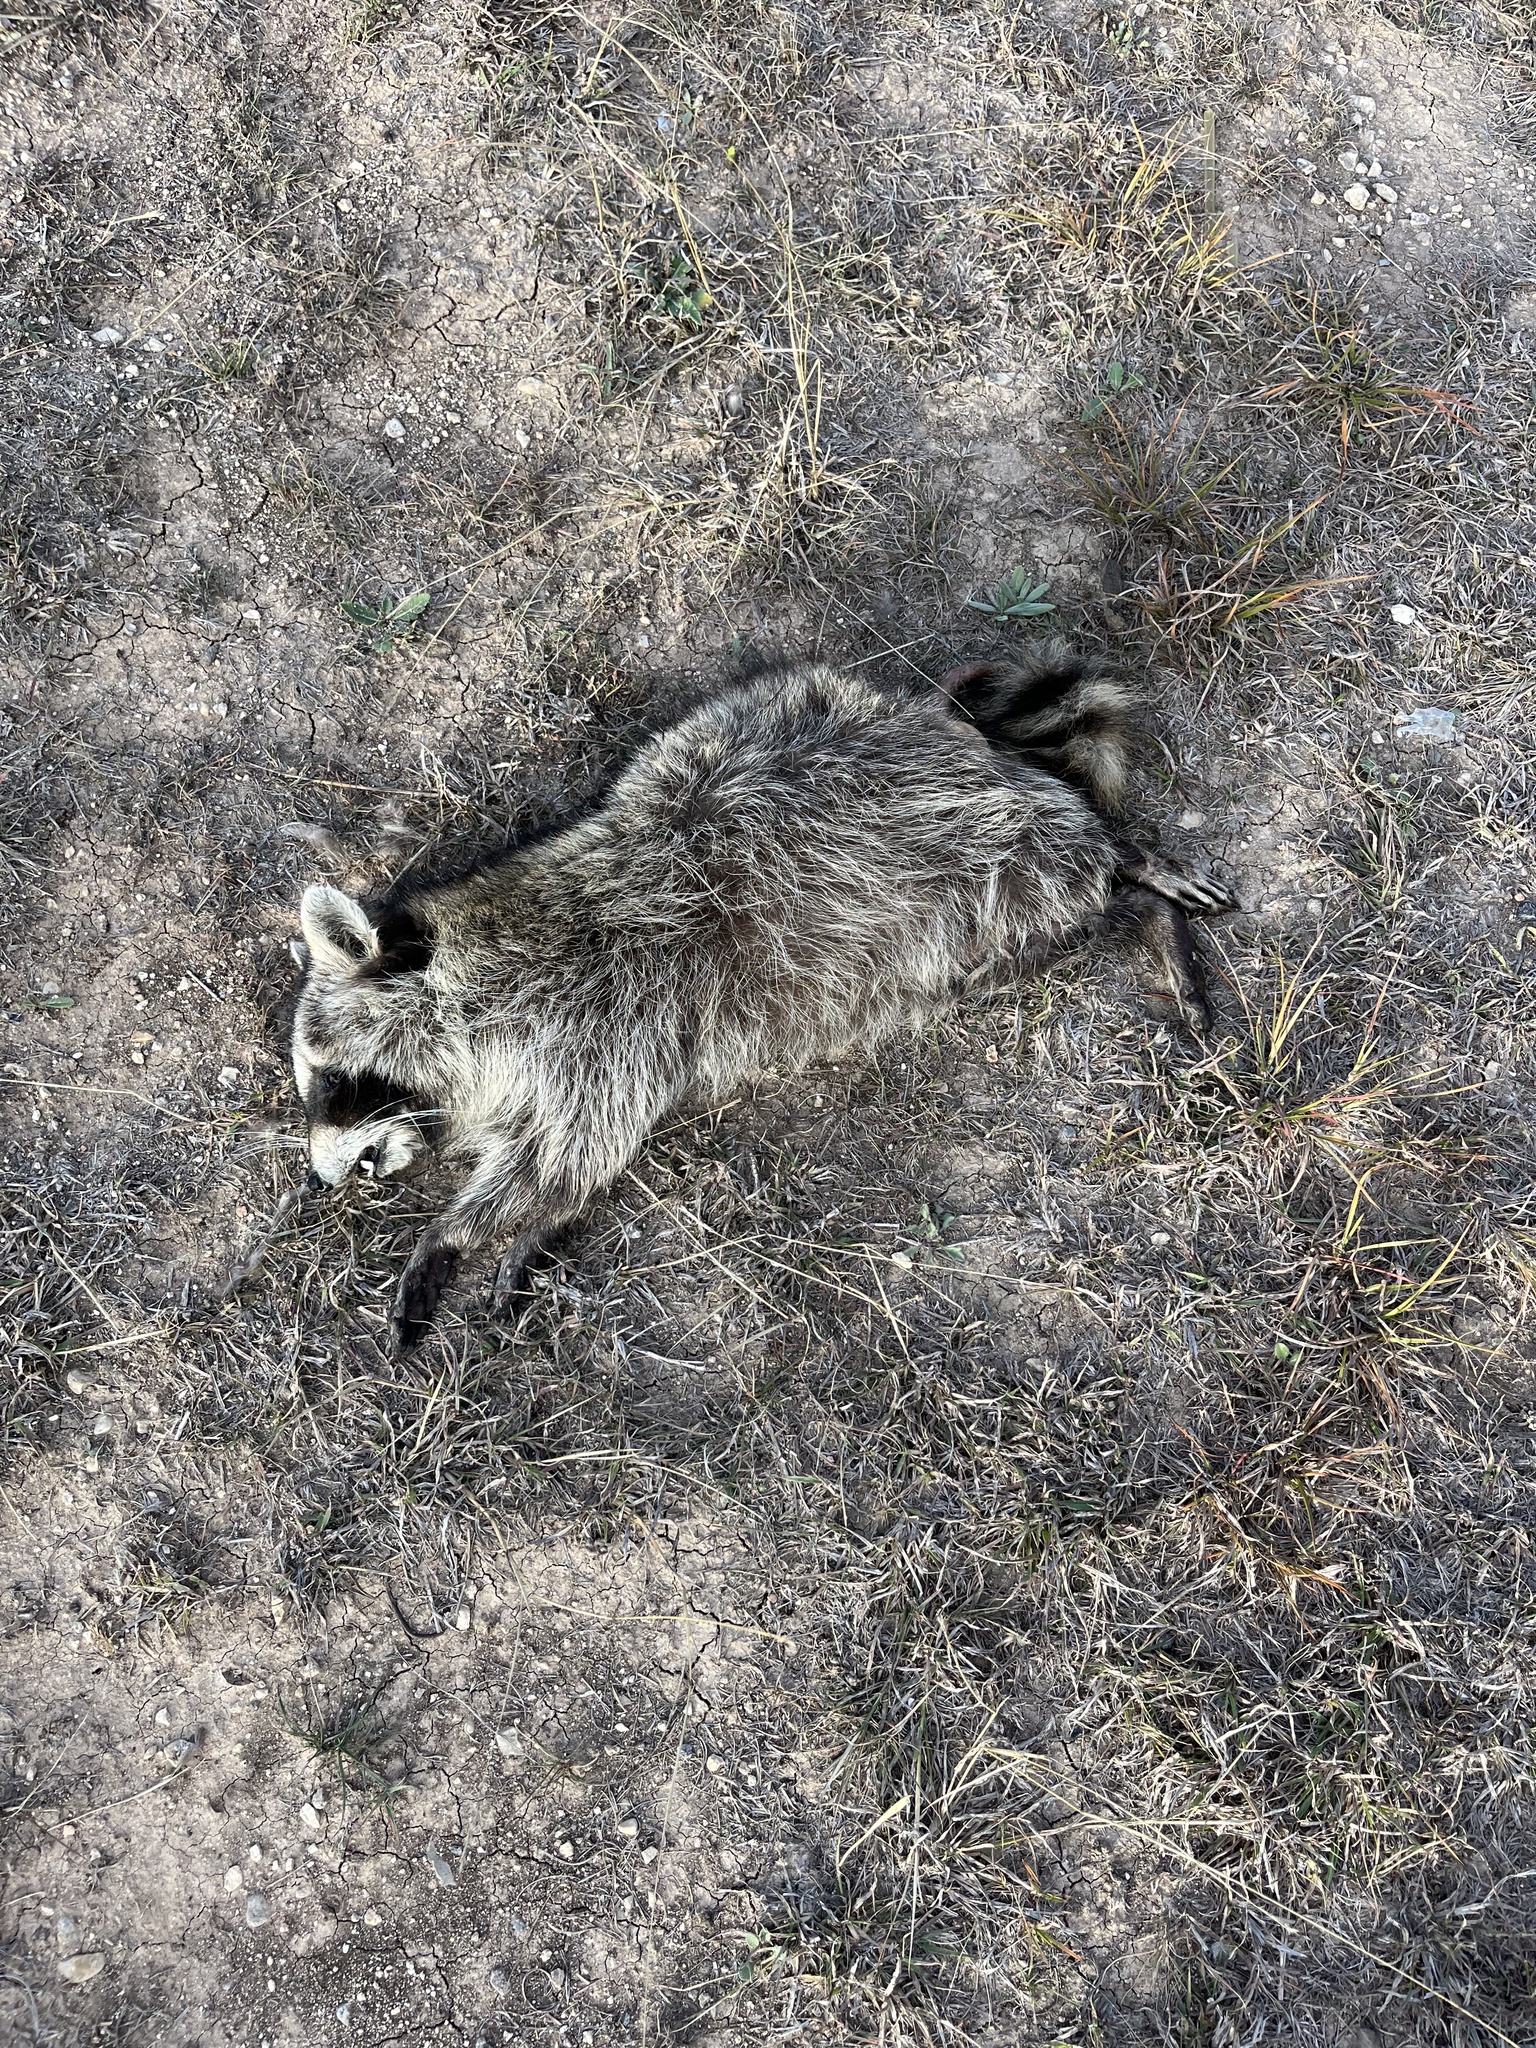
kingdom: Animalia
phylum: Chordata
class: Mammalia
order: Carnivora
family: Procyonidae
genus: Procyon
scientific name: Procyon lotor
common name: Raccoon
